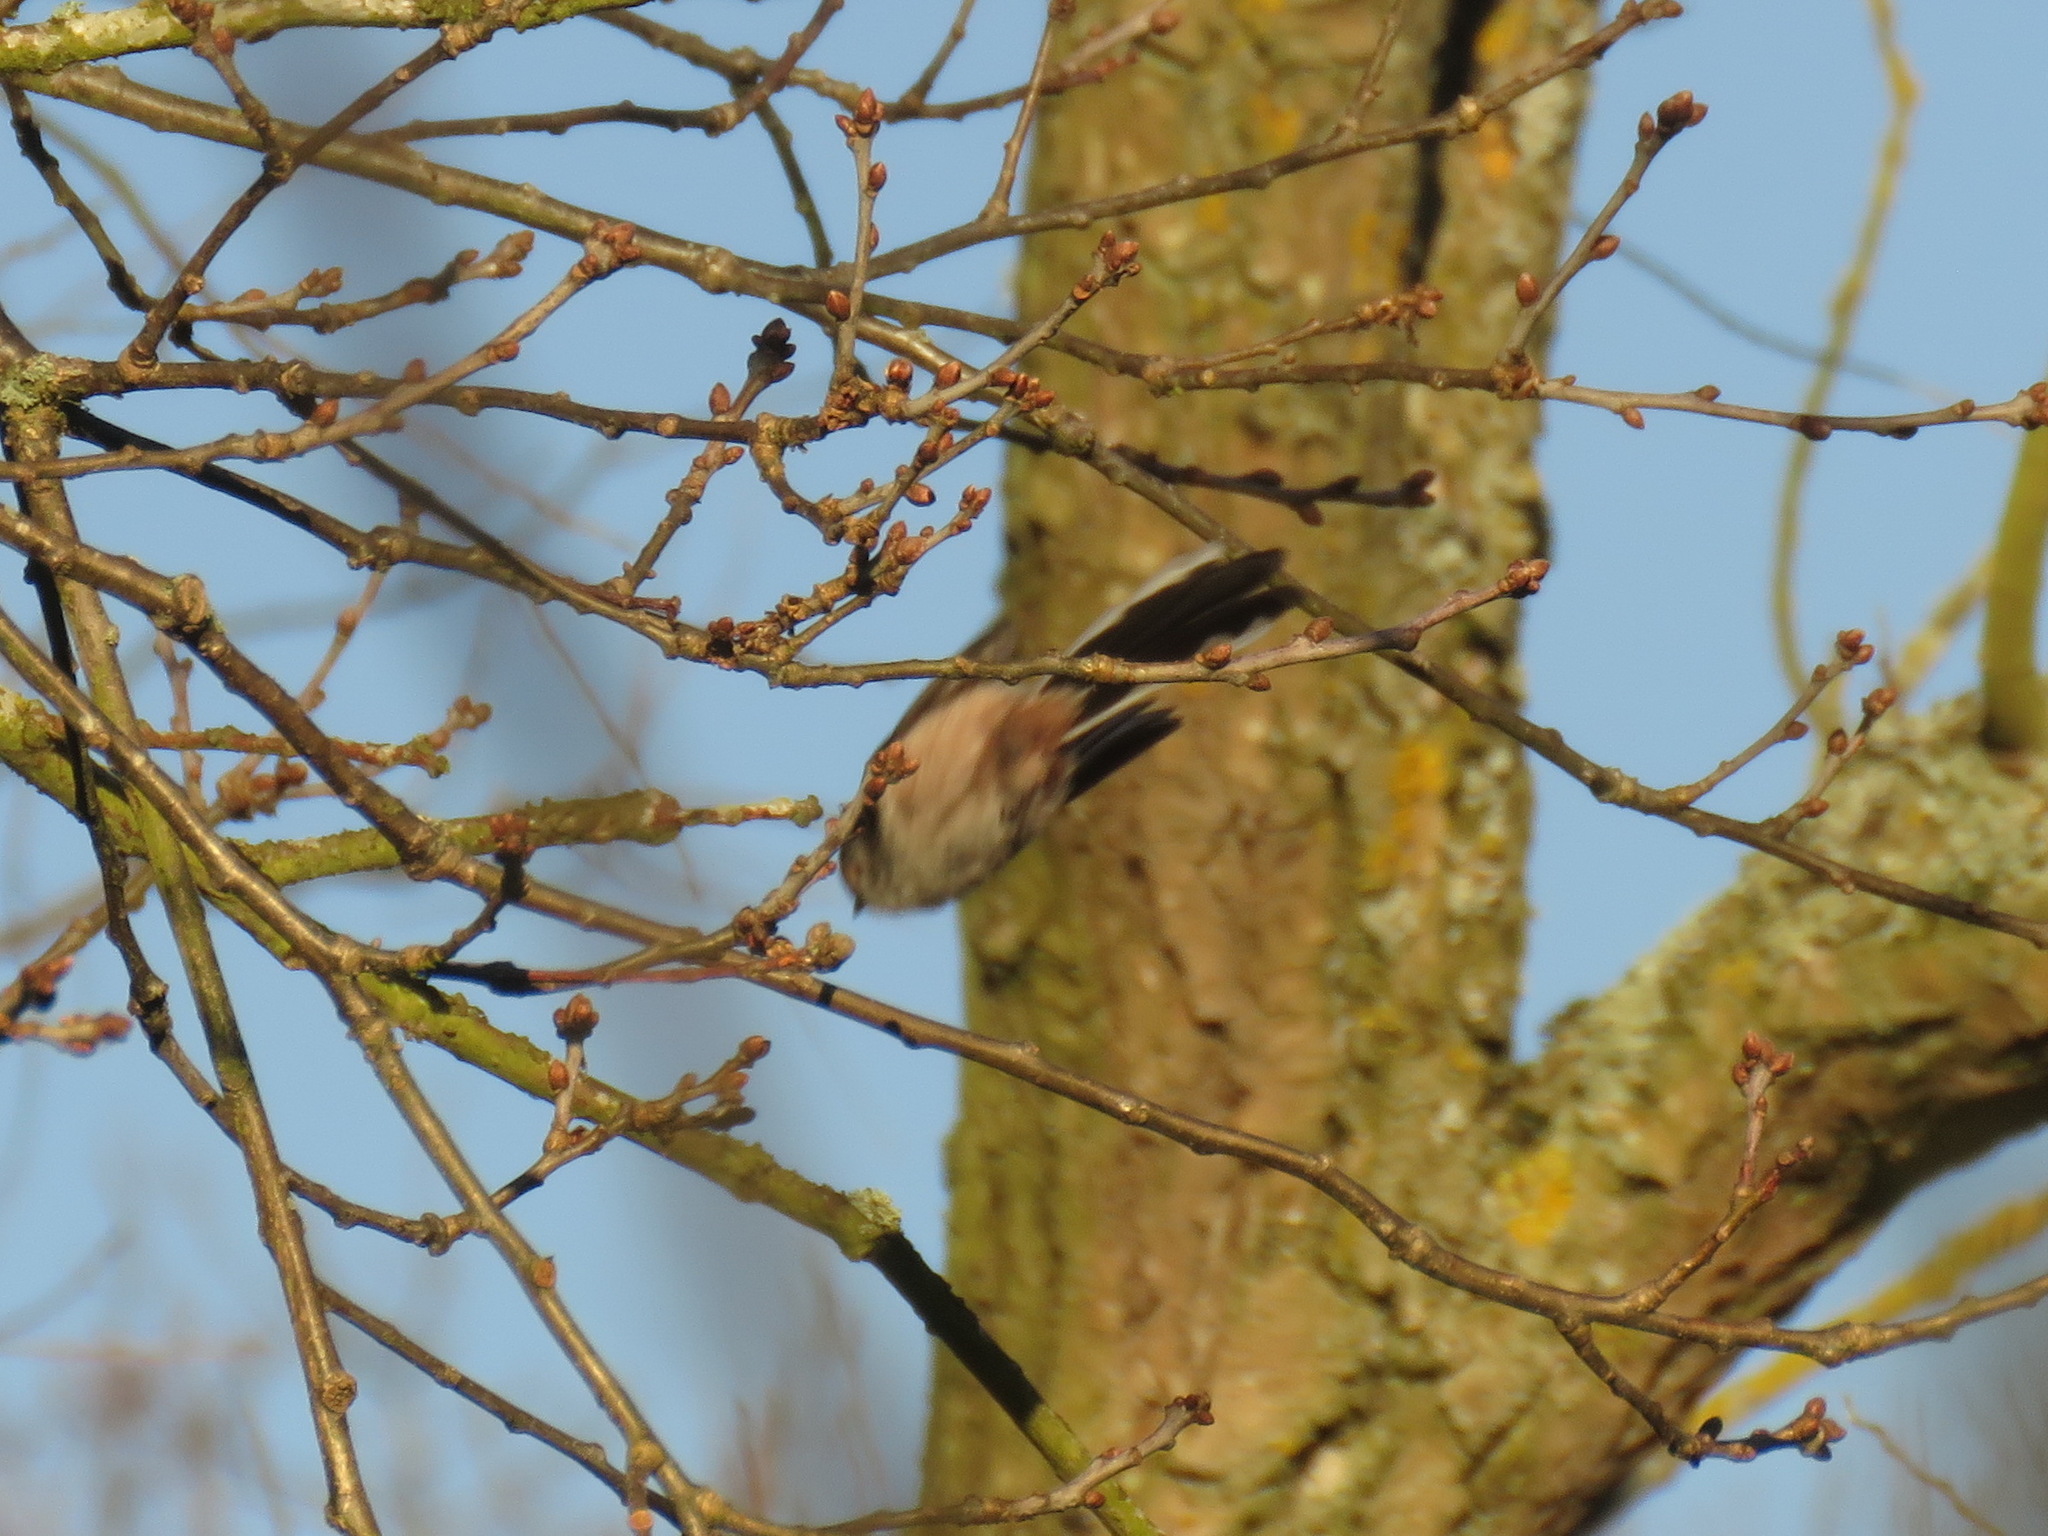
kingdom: Animalia
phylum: Chordata
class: Aves
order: Passeriformes
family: Aegithalidae
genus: Aegithalos
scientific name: Aegithalos caudatus
